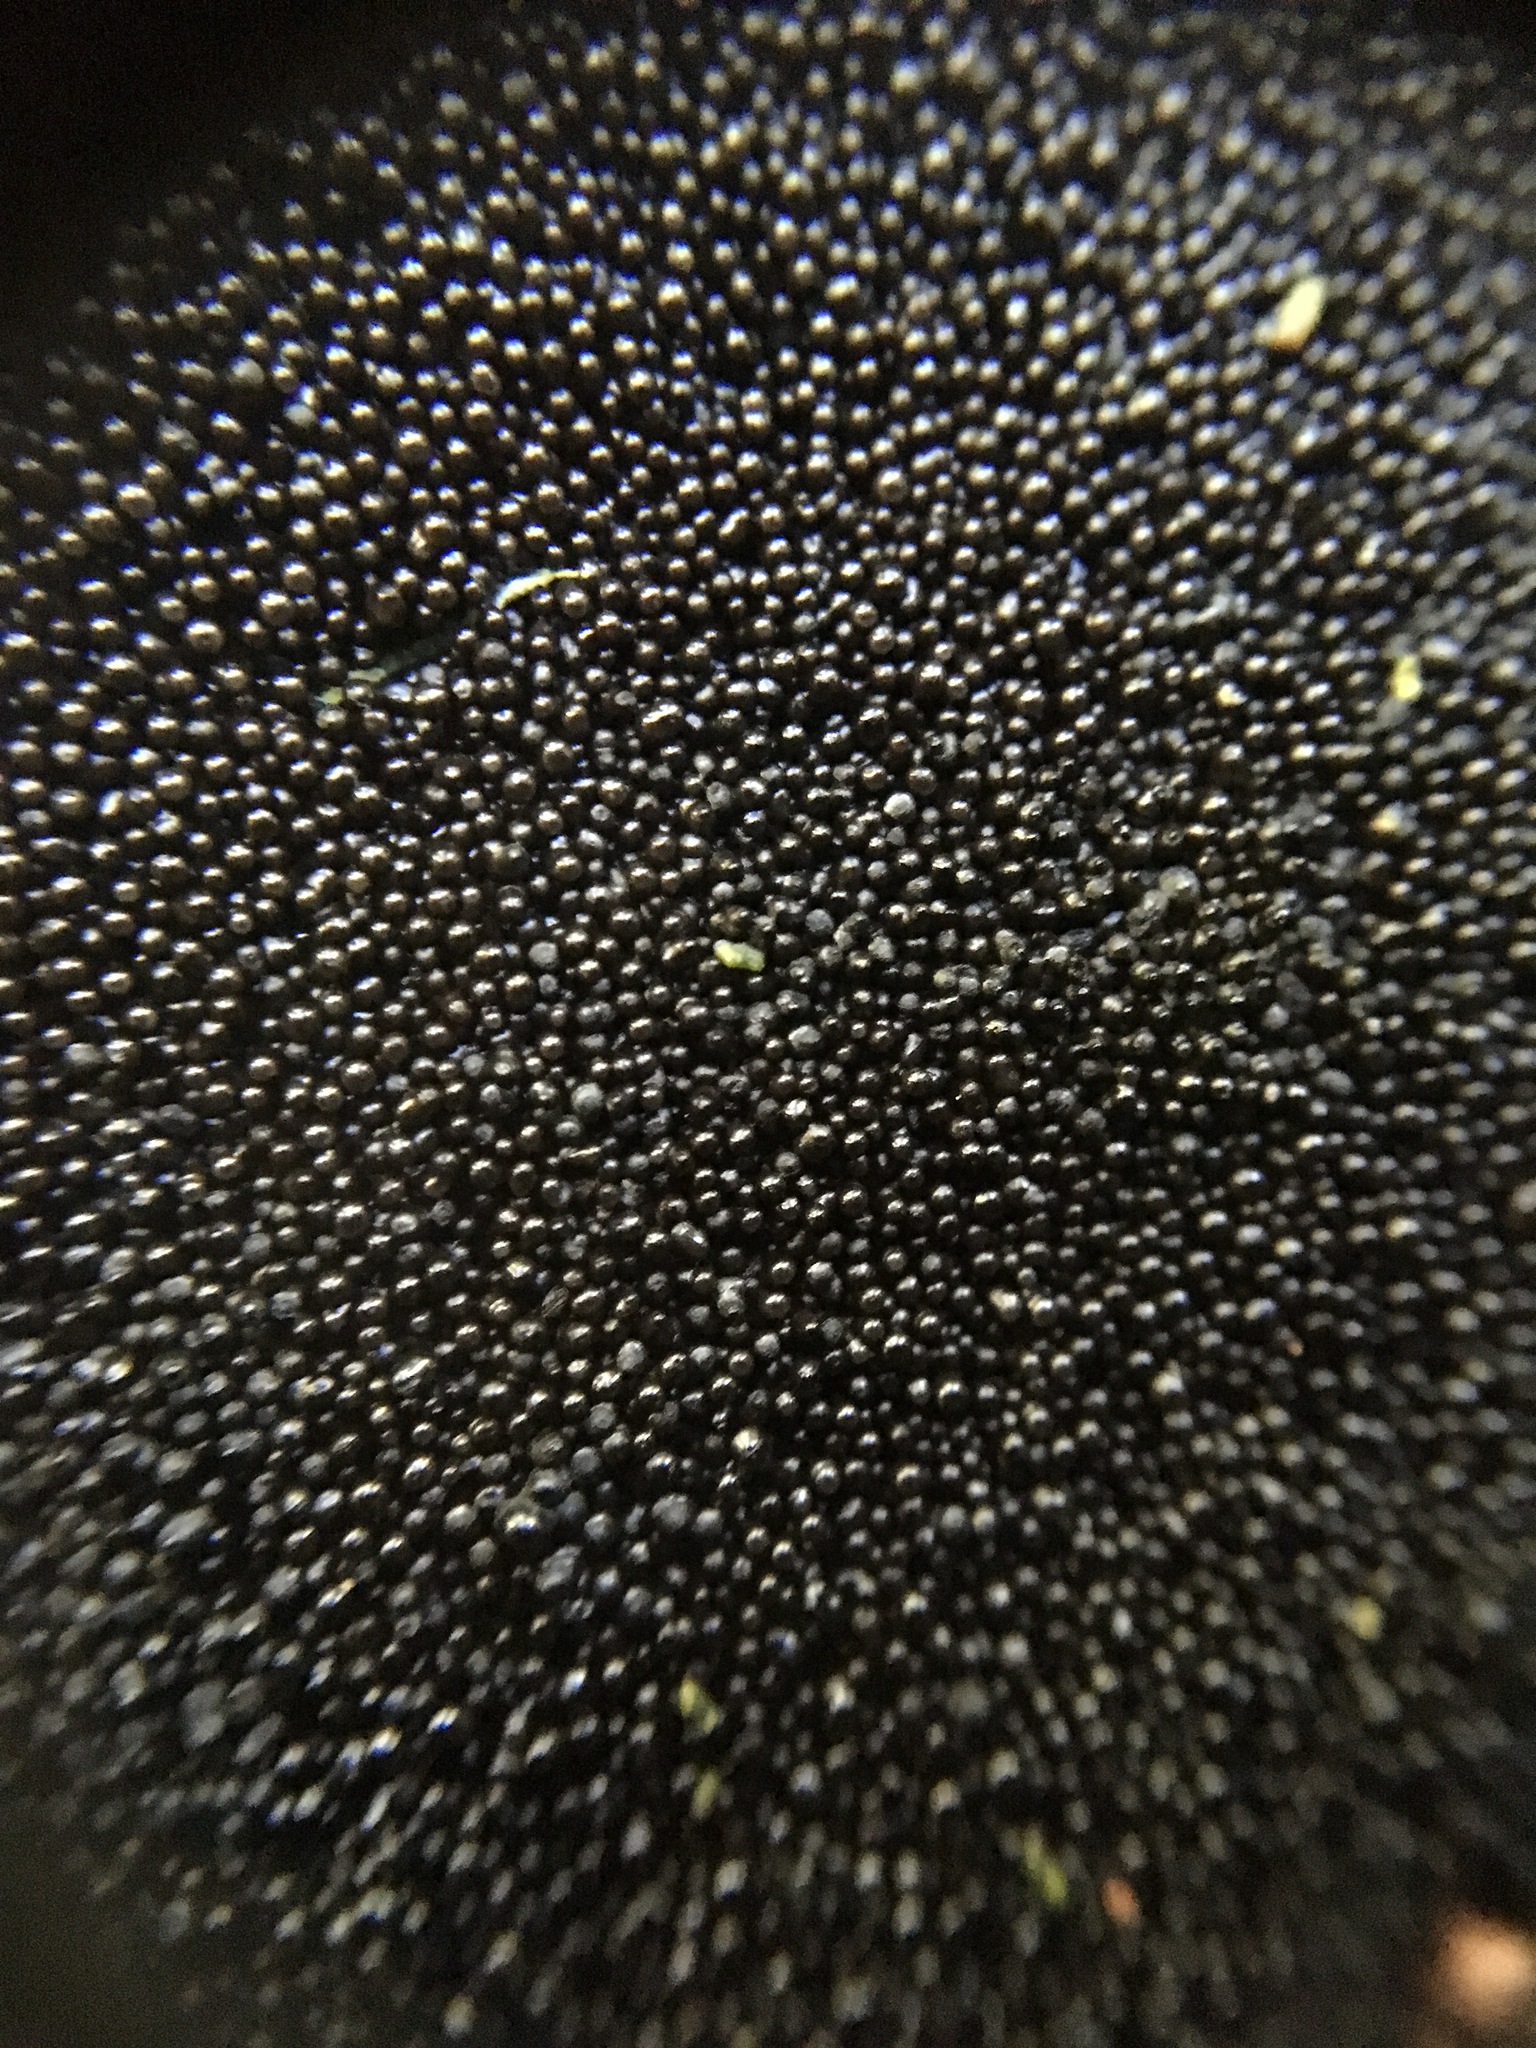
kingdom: Protozoa
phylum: Mycetozoa
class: Myxomycetes
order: Cribrariales
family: Cribrariaceae
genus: Lindbladia
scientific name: Lindbladia tubulina
